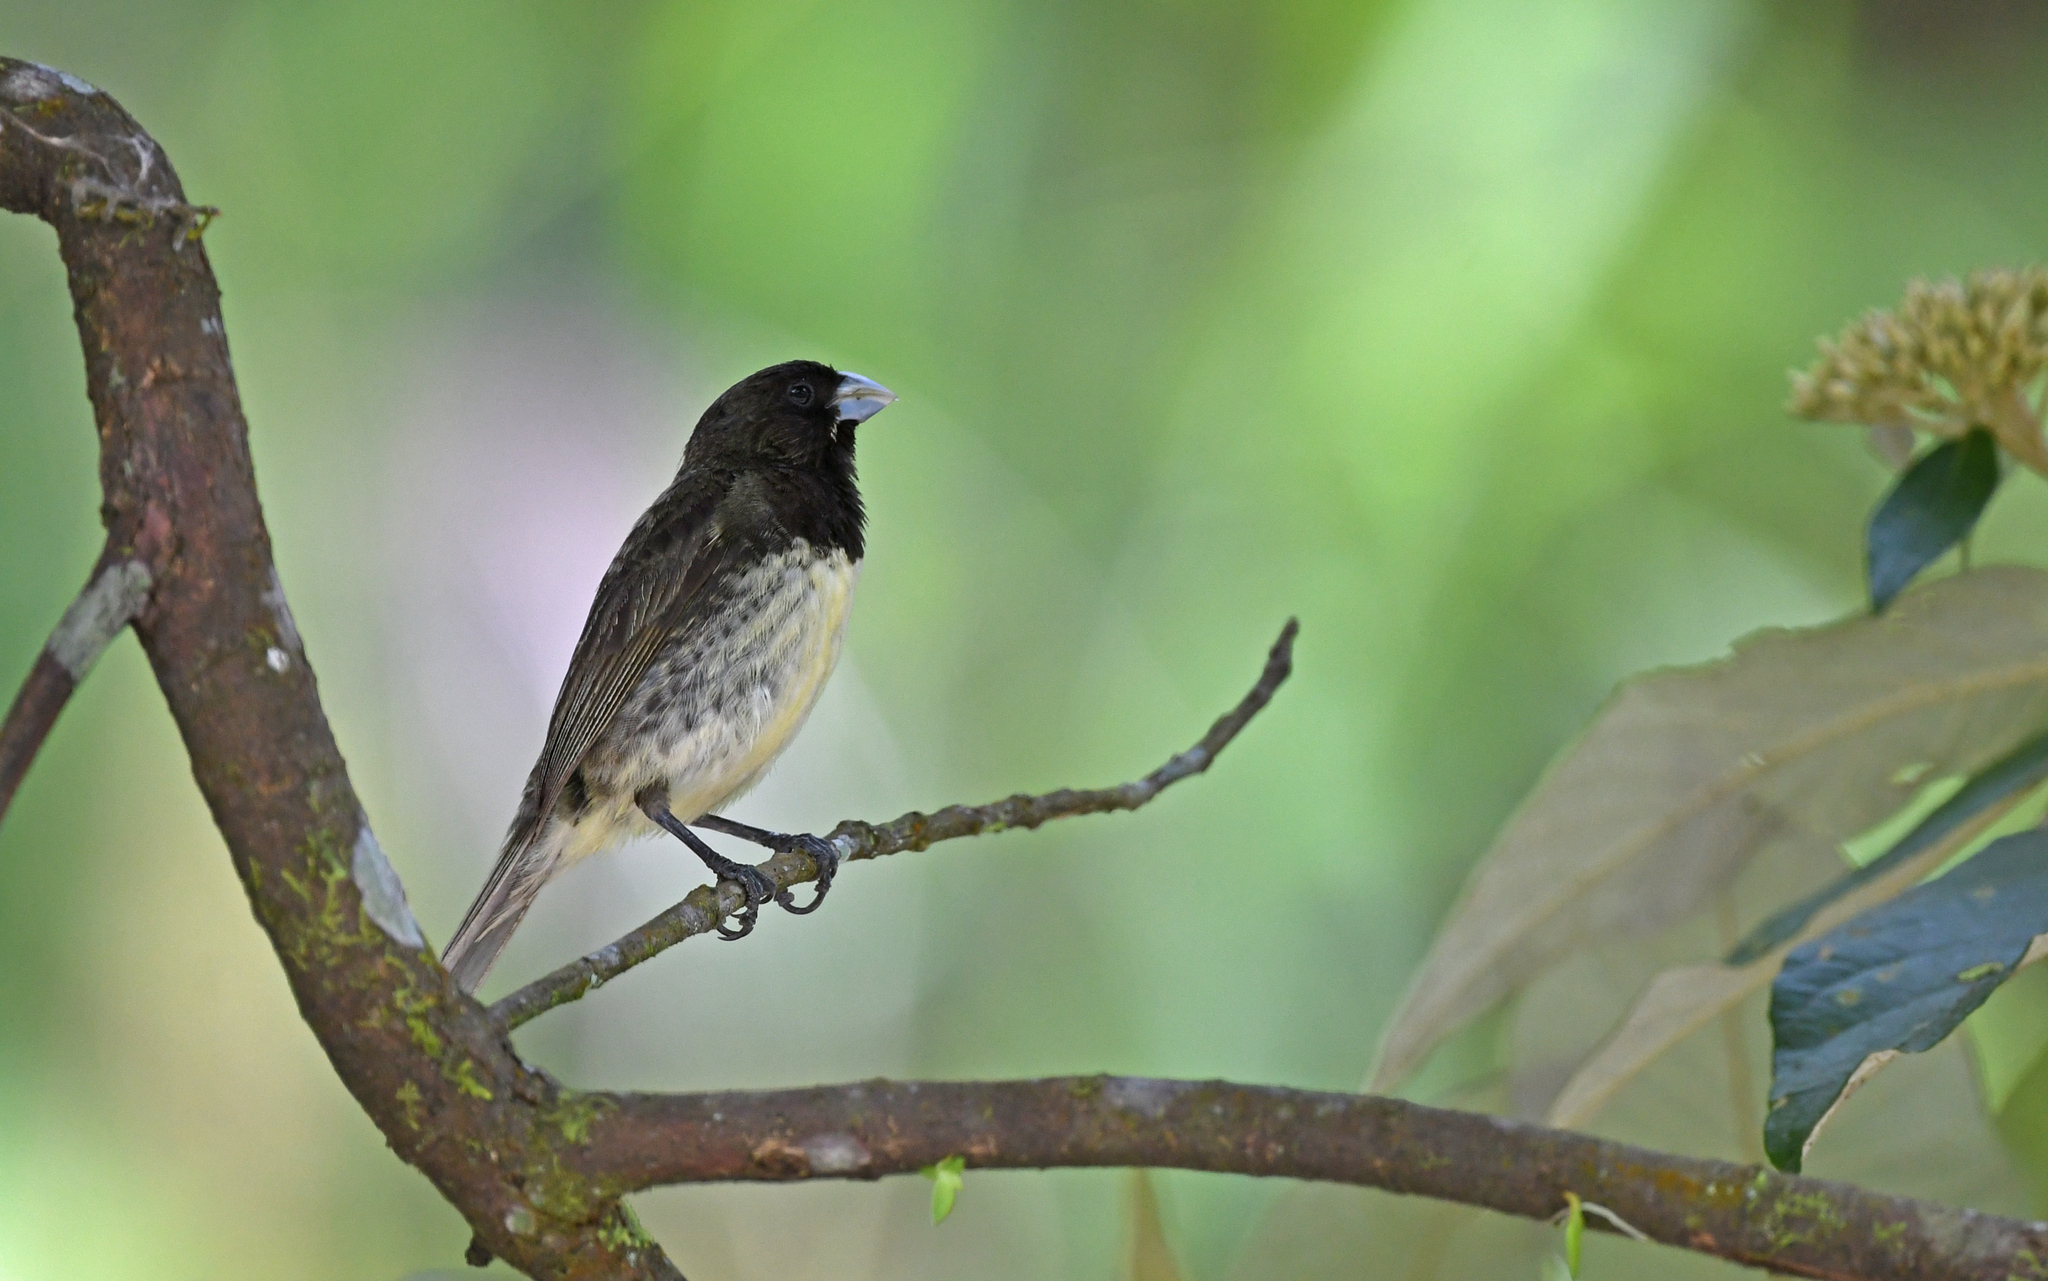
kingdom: Animalia
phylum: Chordata
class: Aves
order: Passeriformes
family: Thraupidae
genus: Sporophila
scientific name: Sporophila nigricollis
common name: Yellow-bellied seedeater
